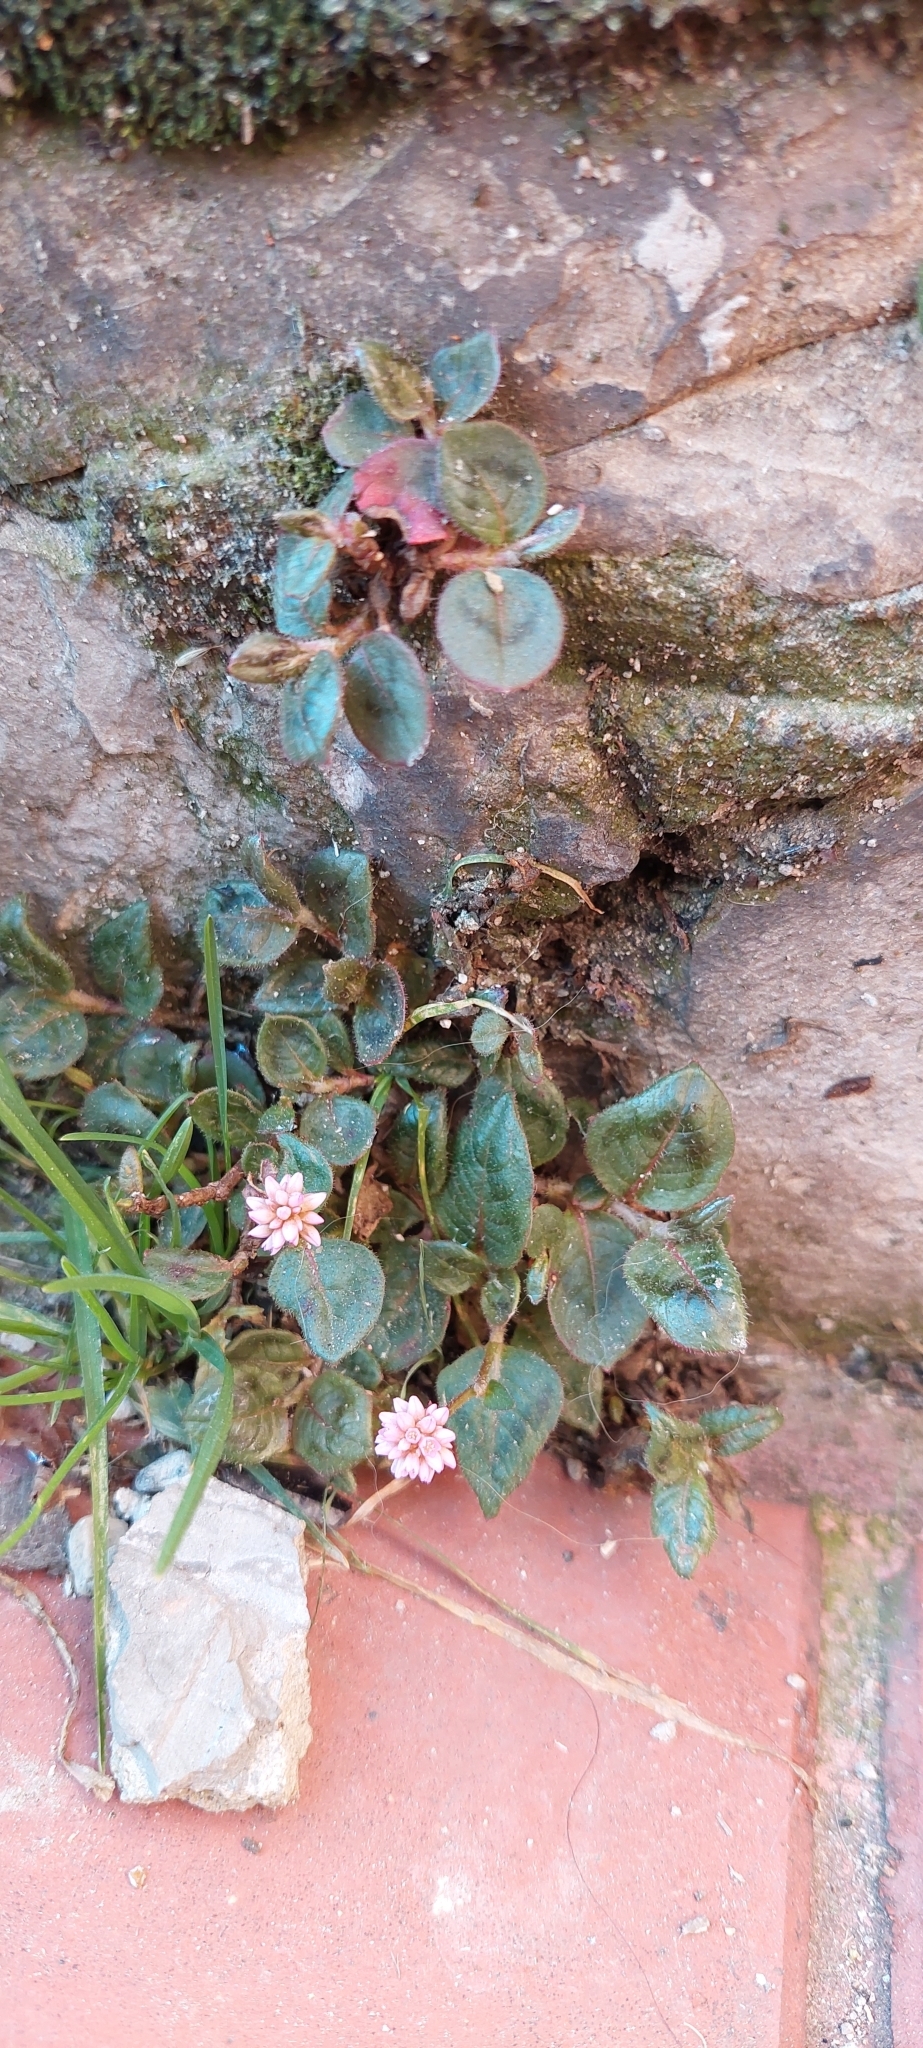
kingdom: Plantae
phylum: Tracheophyta
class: Magnoliopsida
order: Caryophyllales
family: Polygonaceae
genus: Persicaria
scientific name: Persicaria capitata
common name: Pinkhead smartweed
